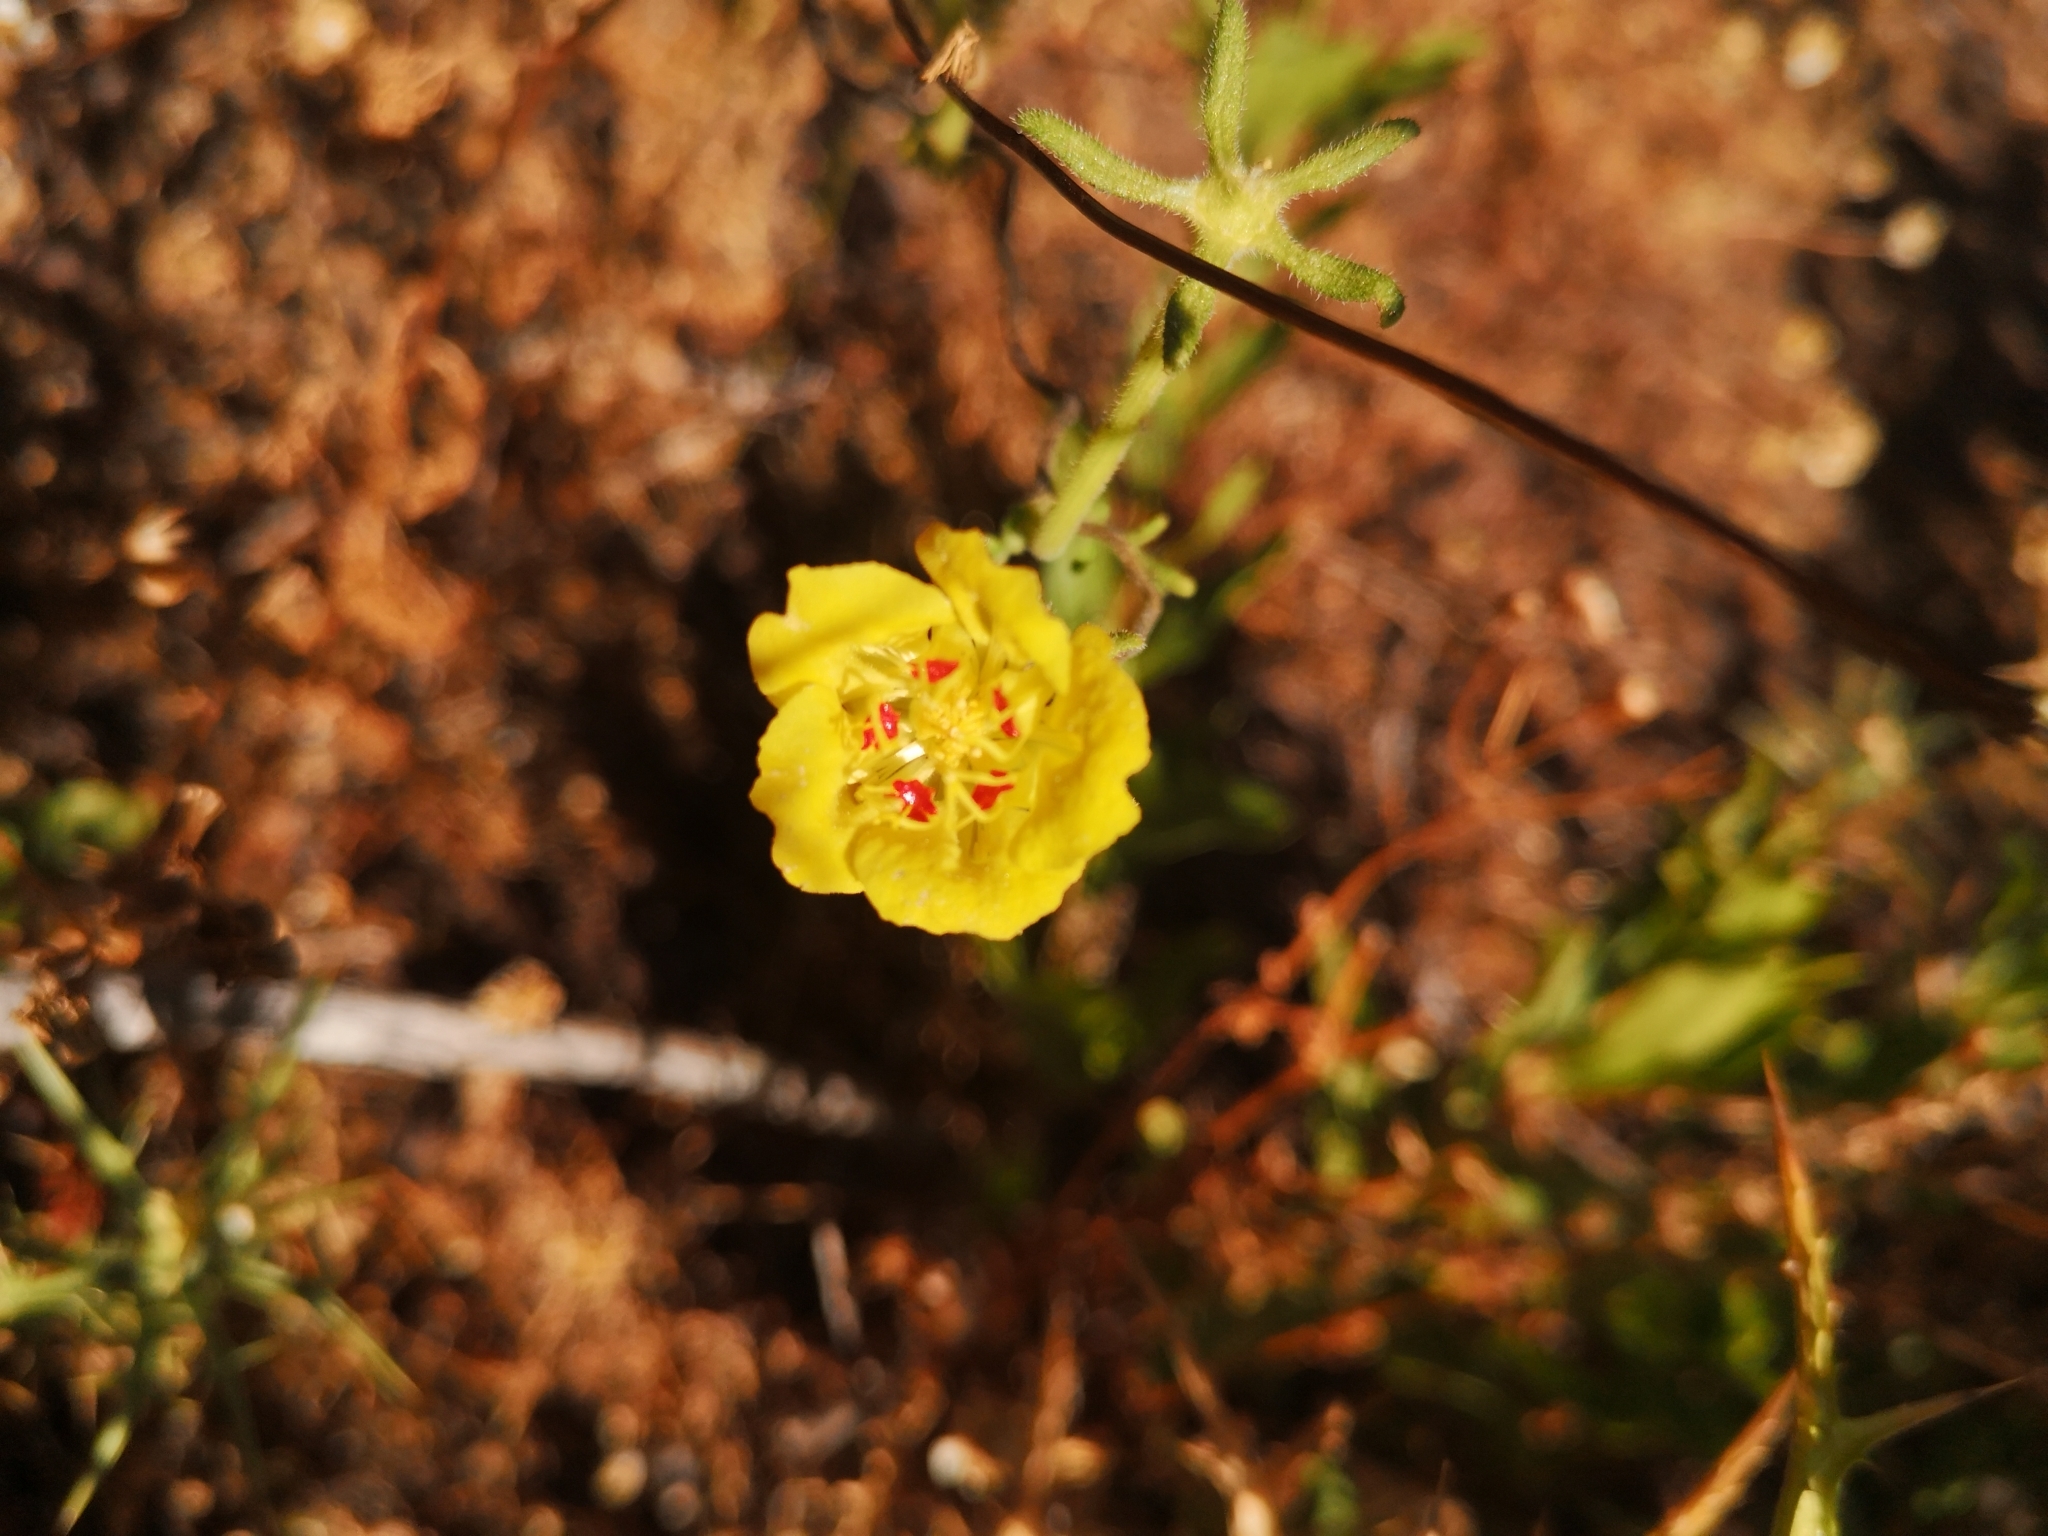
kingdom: Plantae
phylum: Tracheophyta
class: Magnoliopsida
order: Cornales
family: Loasaceae
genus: Scyphanthus
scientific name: Scyphanthus elegans
